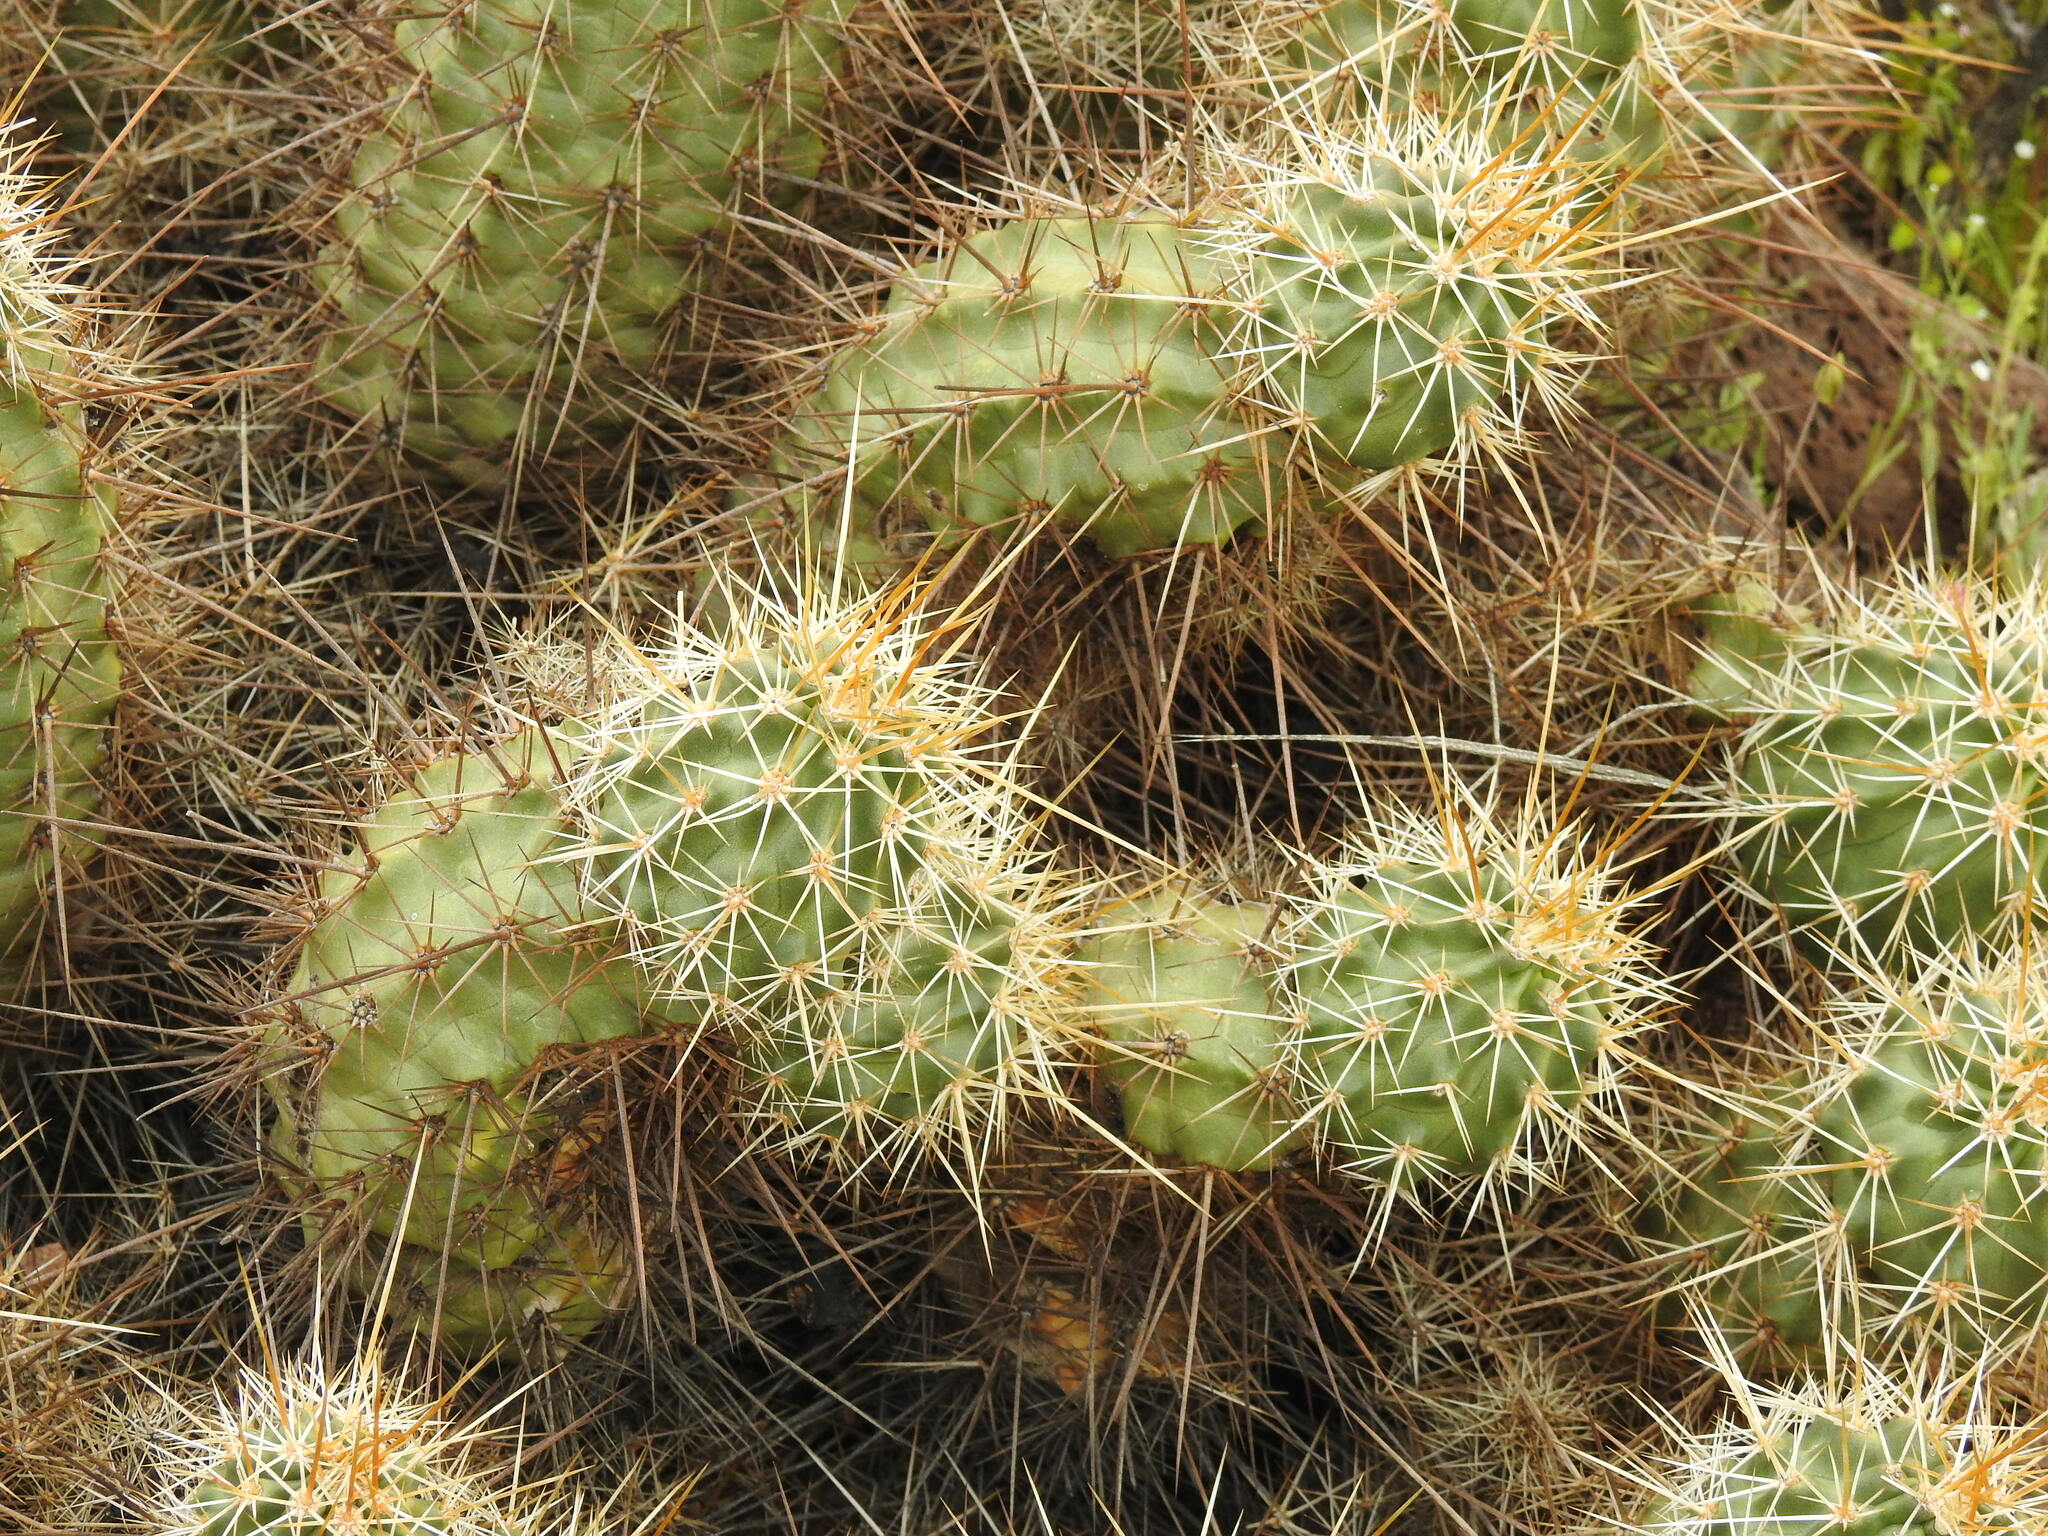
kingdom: Plantae
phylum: Tracheophyta
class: Magnoliopsida
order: Caryophyllales
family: Cactaceae
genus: Echinocereus
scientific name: Echinocereus engelmannii
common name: Engelmann's hedgehog cactus
